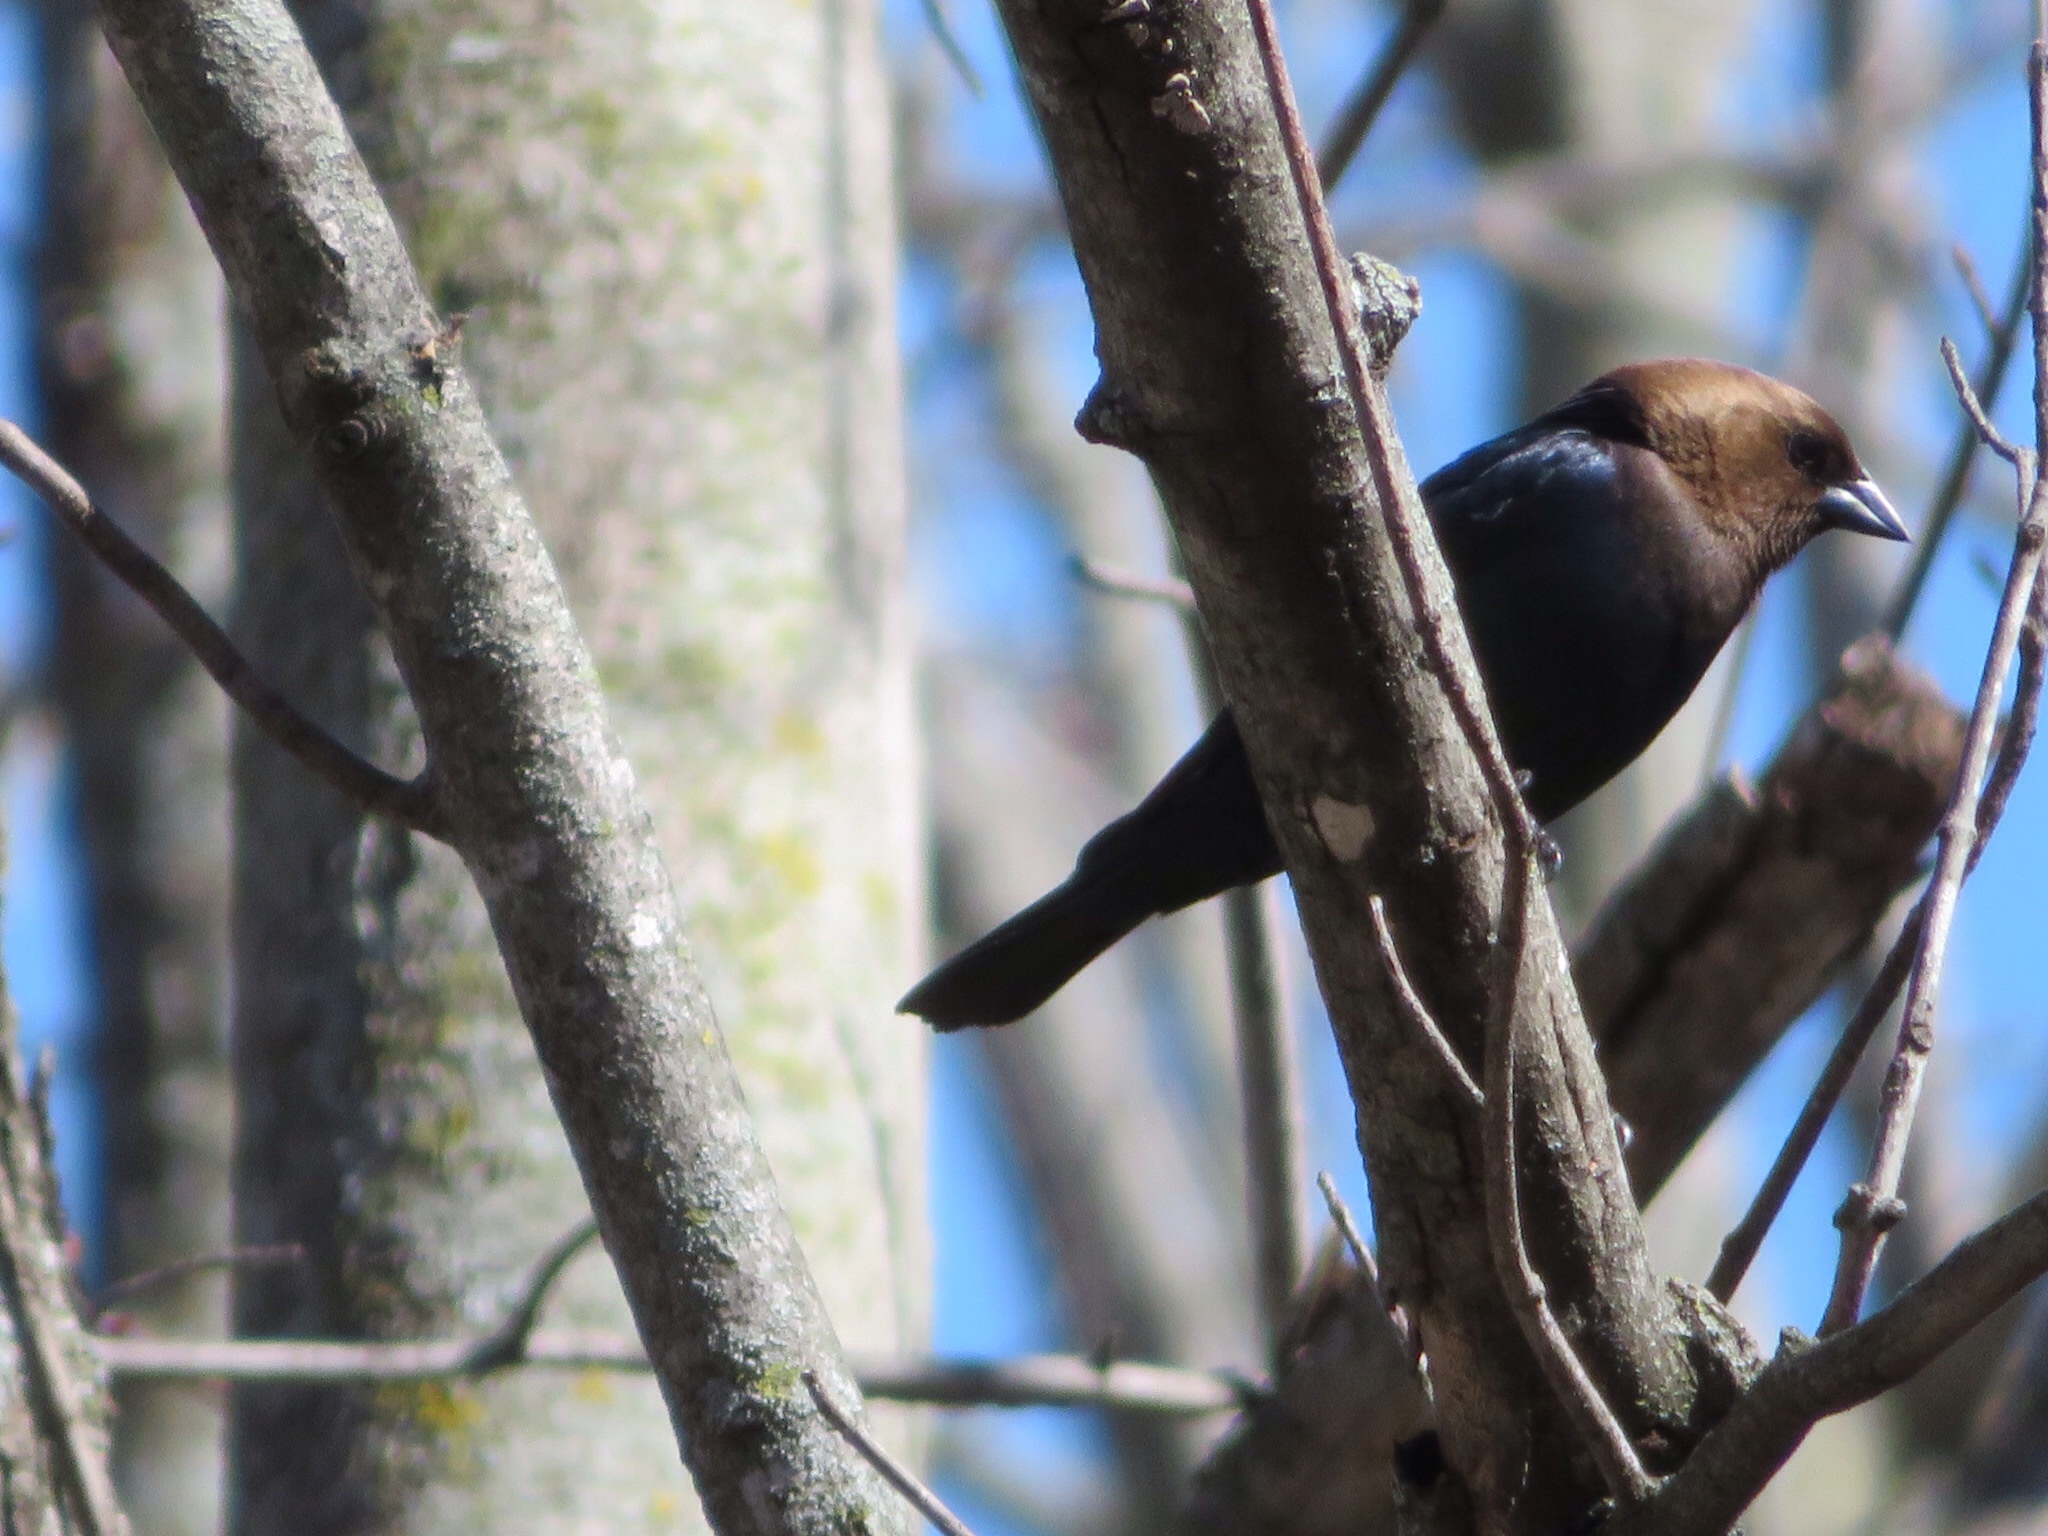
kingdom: Animalia
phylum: Chordata
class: Aves
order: Passeriformes
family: Icteridae
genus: Molothrus
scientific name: Molothrus ater
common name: Brown-headed cowbird
